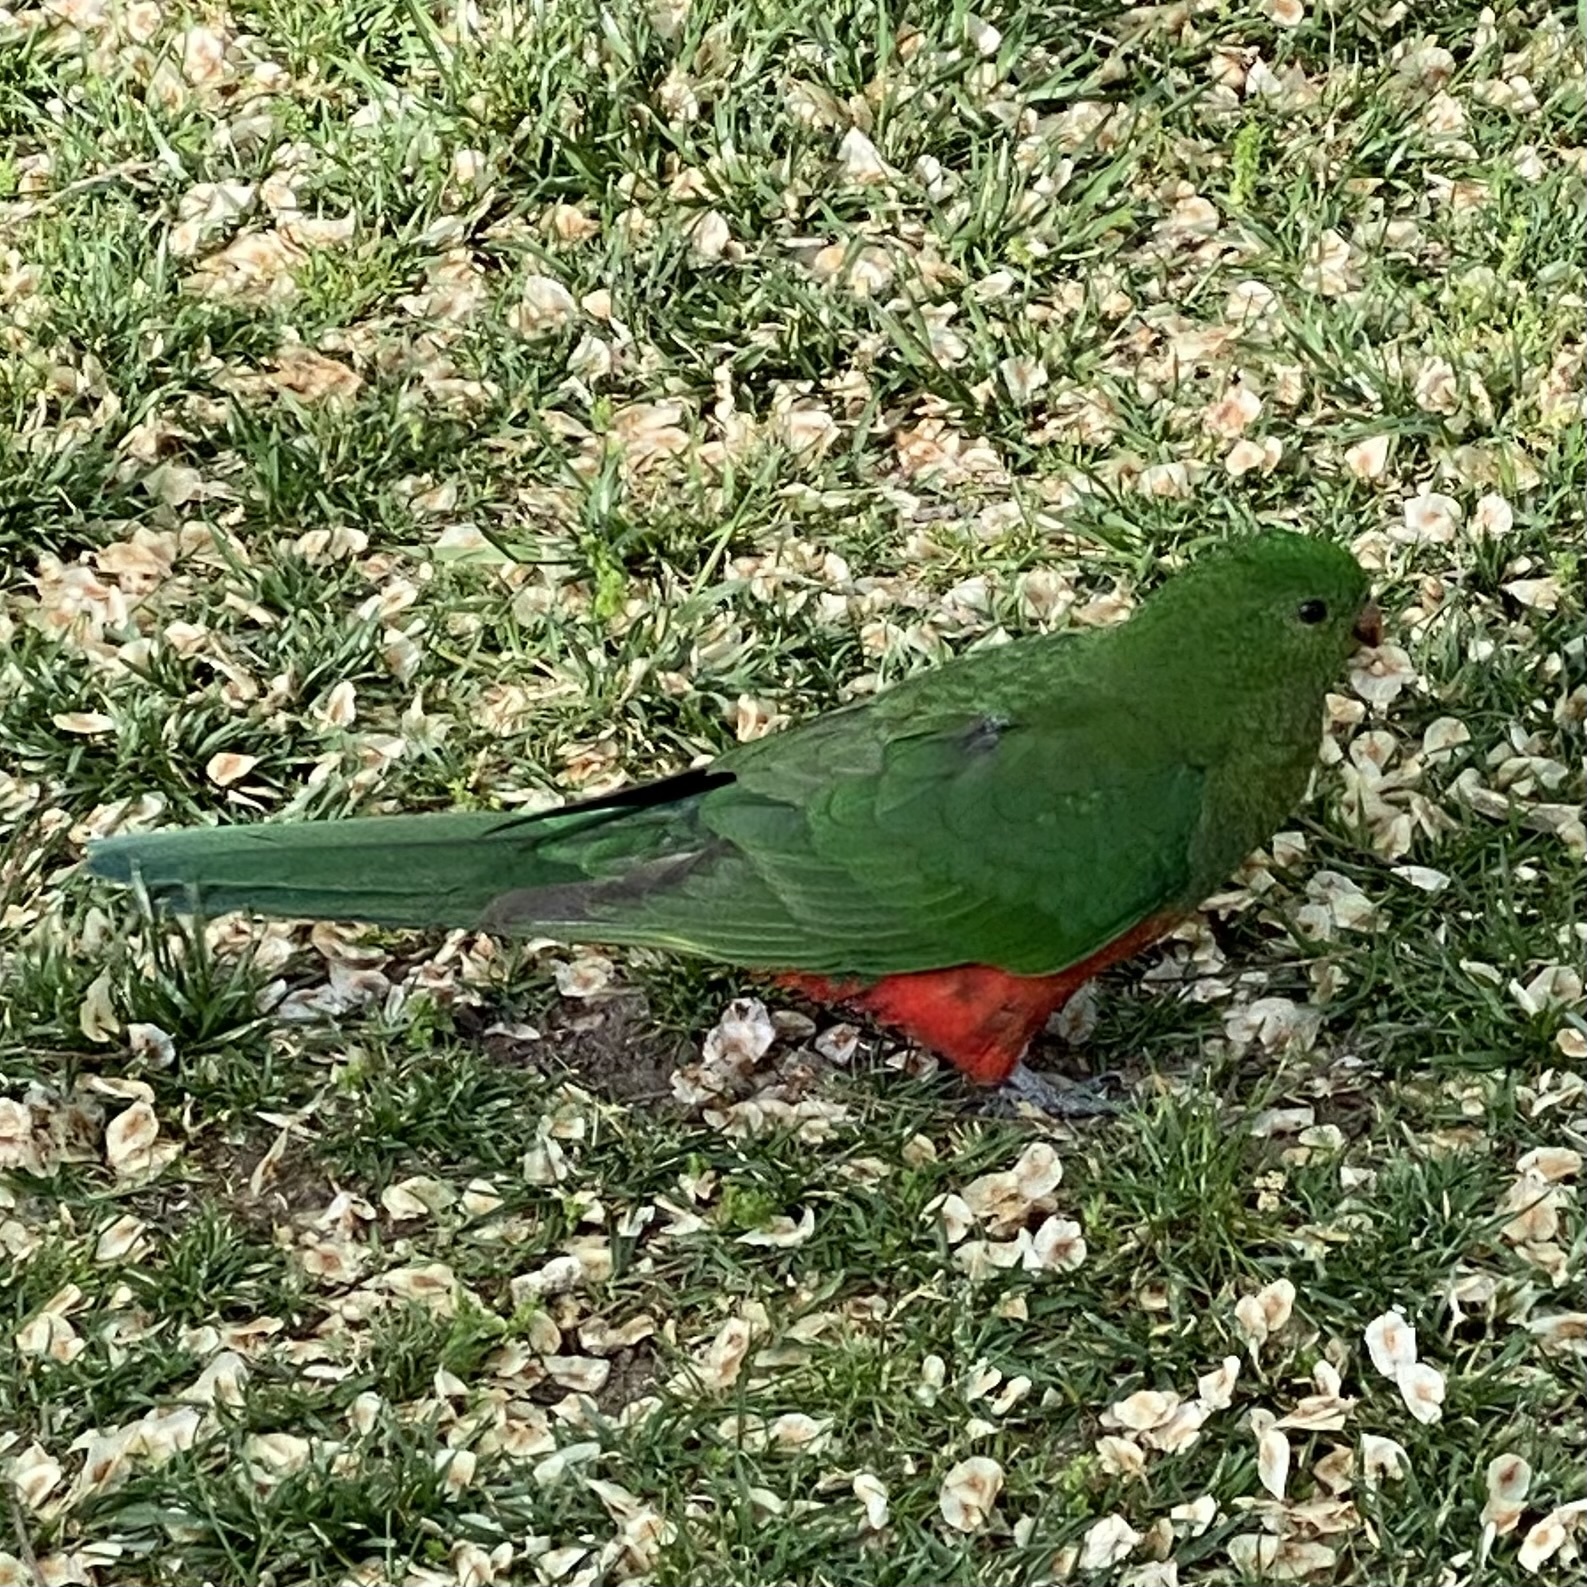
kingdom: Animalia
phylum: Chordata
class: Aves
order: Psittaciformes
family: Psittacidae
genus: Alisterus
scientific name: Alisterus scapularis
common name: Australian king parrot
